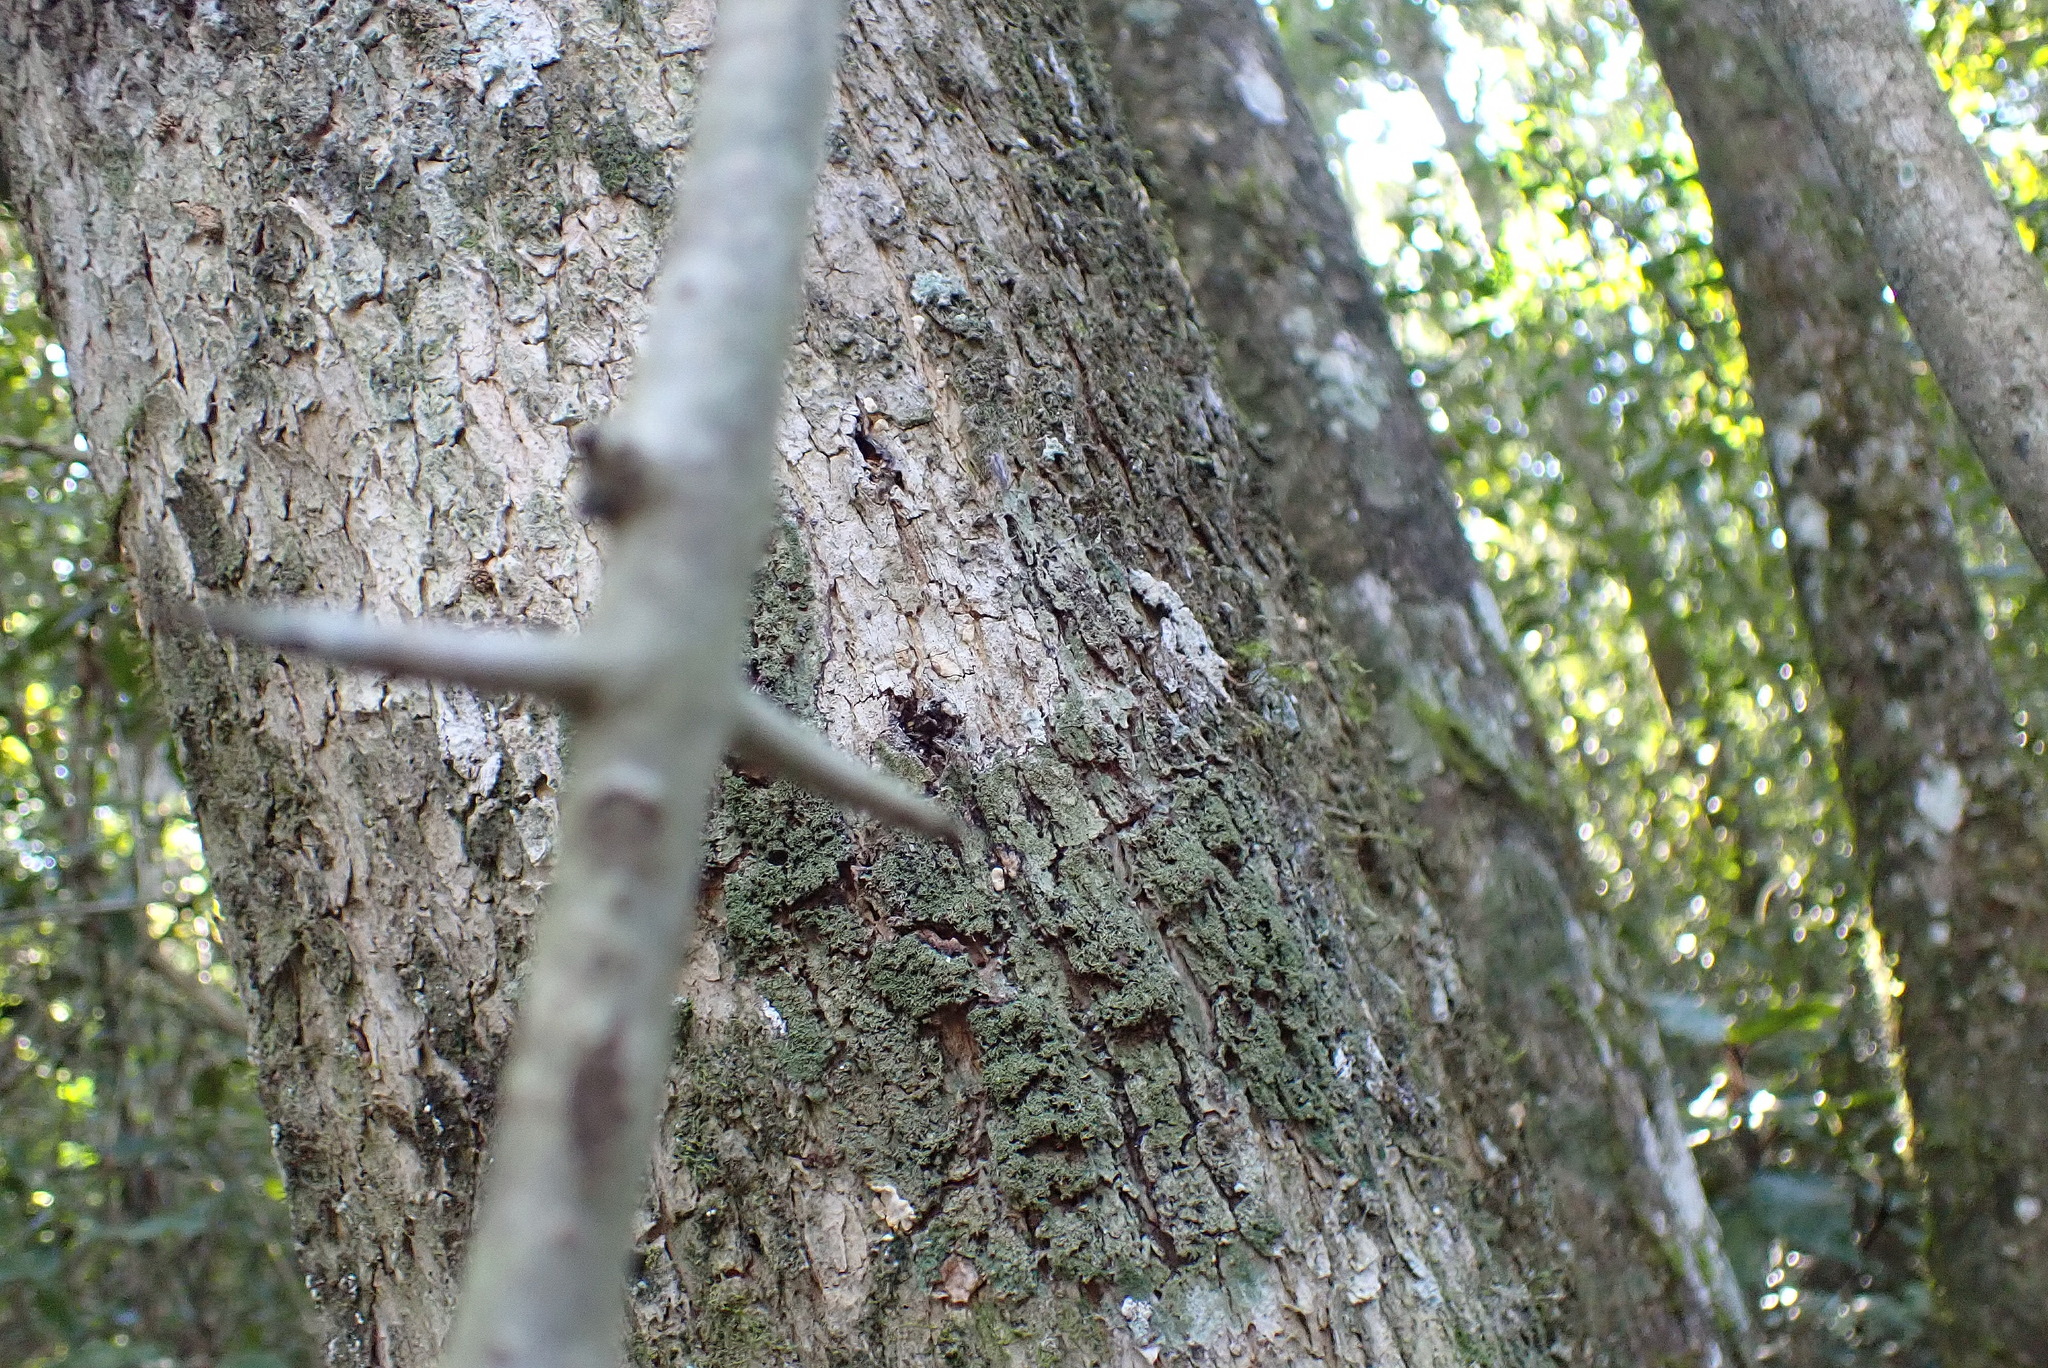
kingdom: Plantae
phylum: Tracheophyta
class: Magnoliopsida
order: Gentianales
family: Rubiaceae
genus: Canthium
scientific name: Canthium inerme
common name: Unarmed turkey-berry
